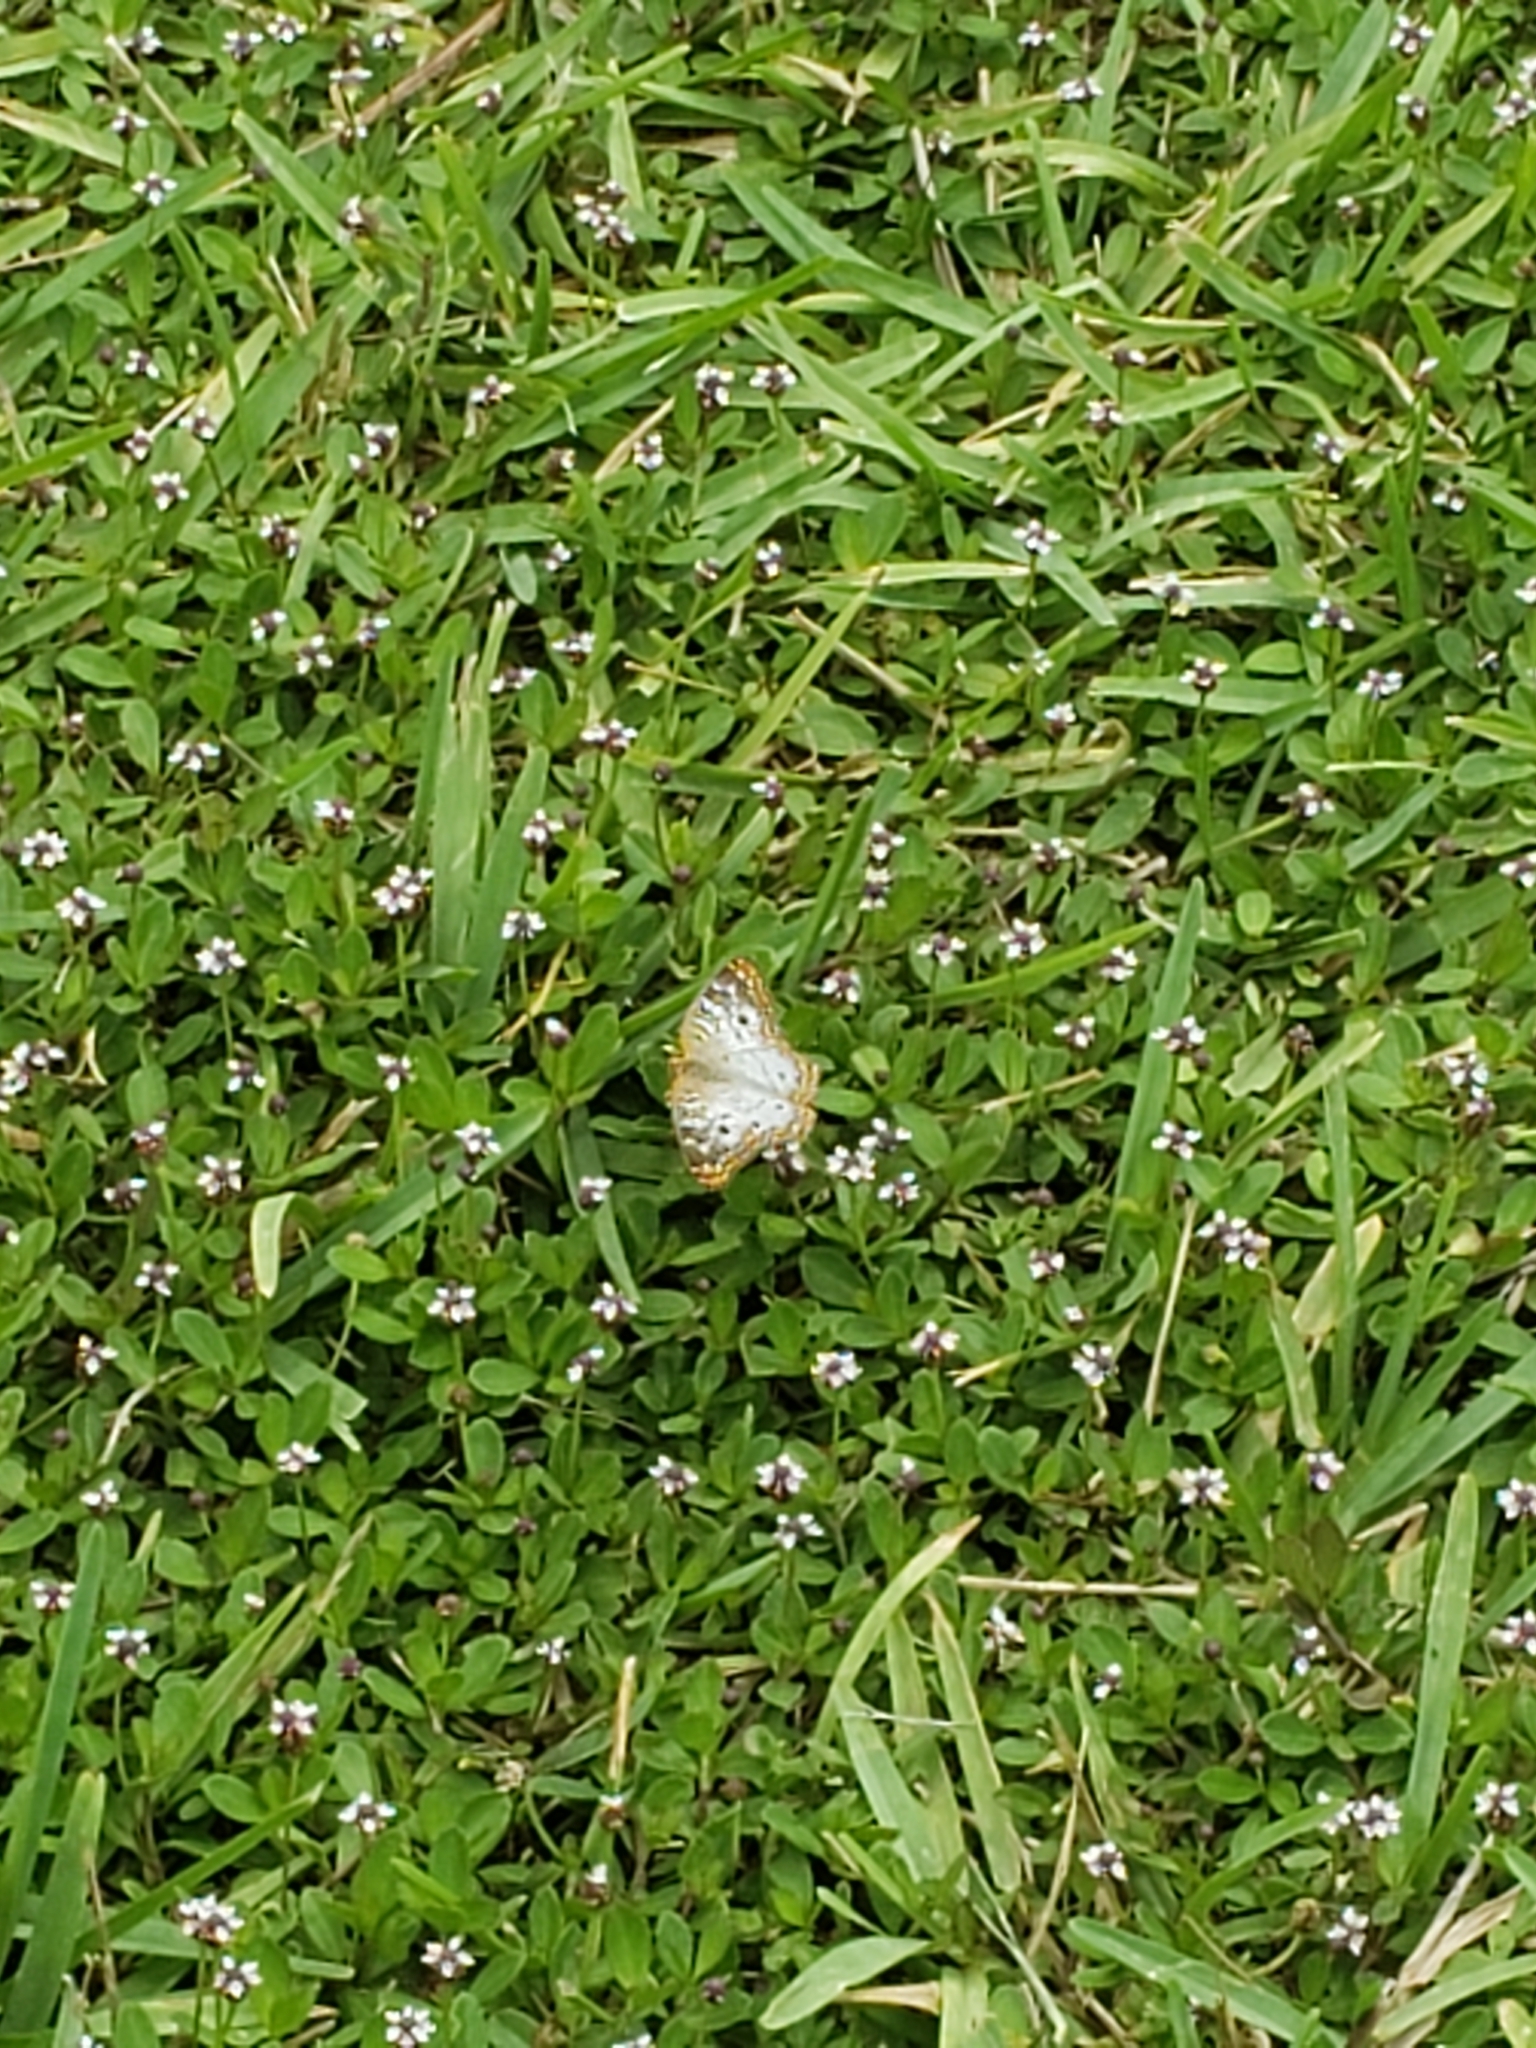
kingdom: Animalia
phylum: Arthropoda
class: Insecta
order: Lepidoptera
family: Nymphalidae
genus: Anartia
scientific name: Anartia jatrophae
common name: White peacock
